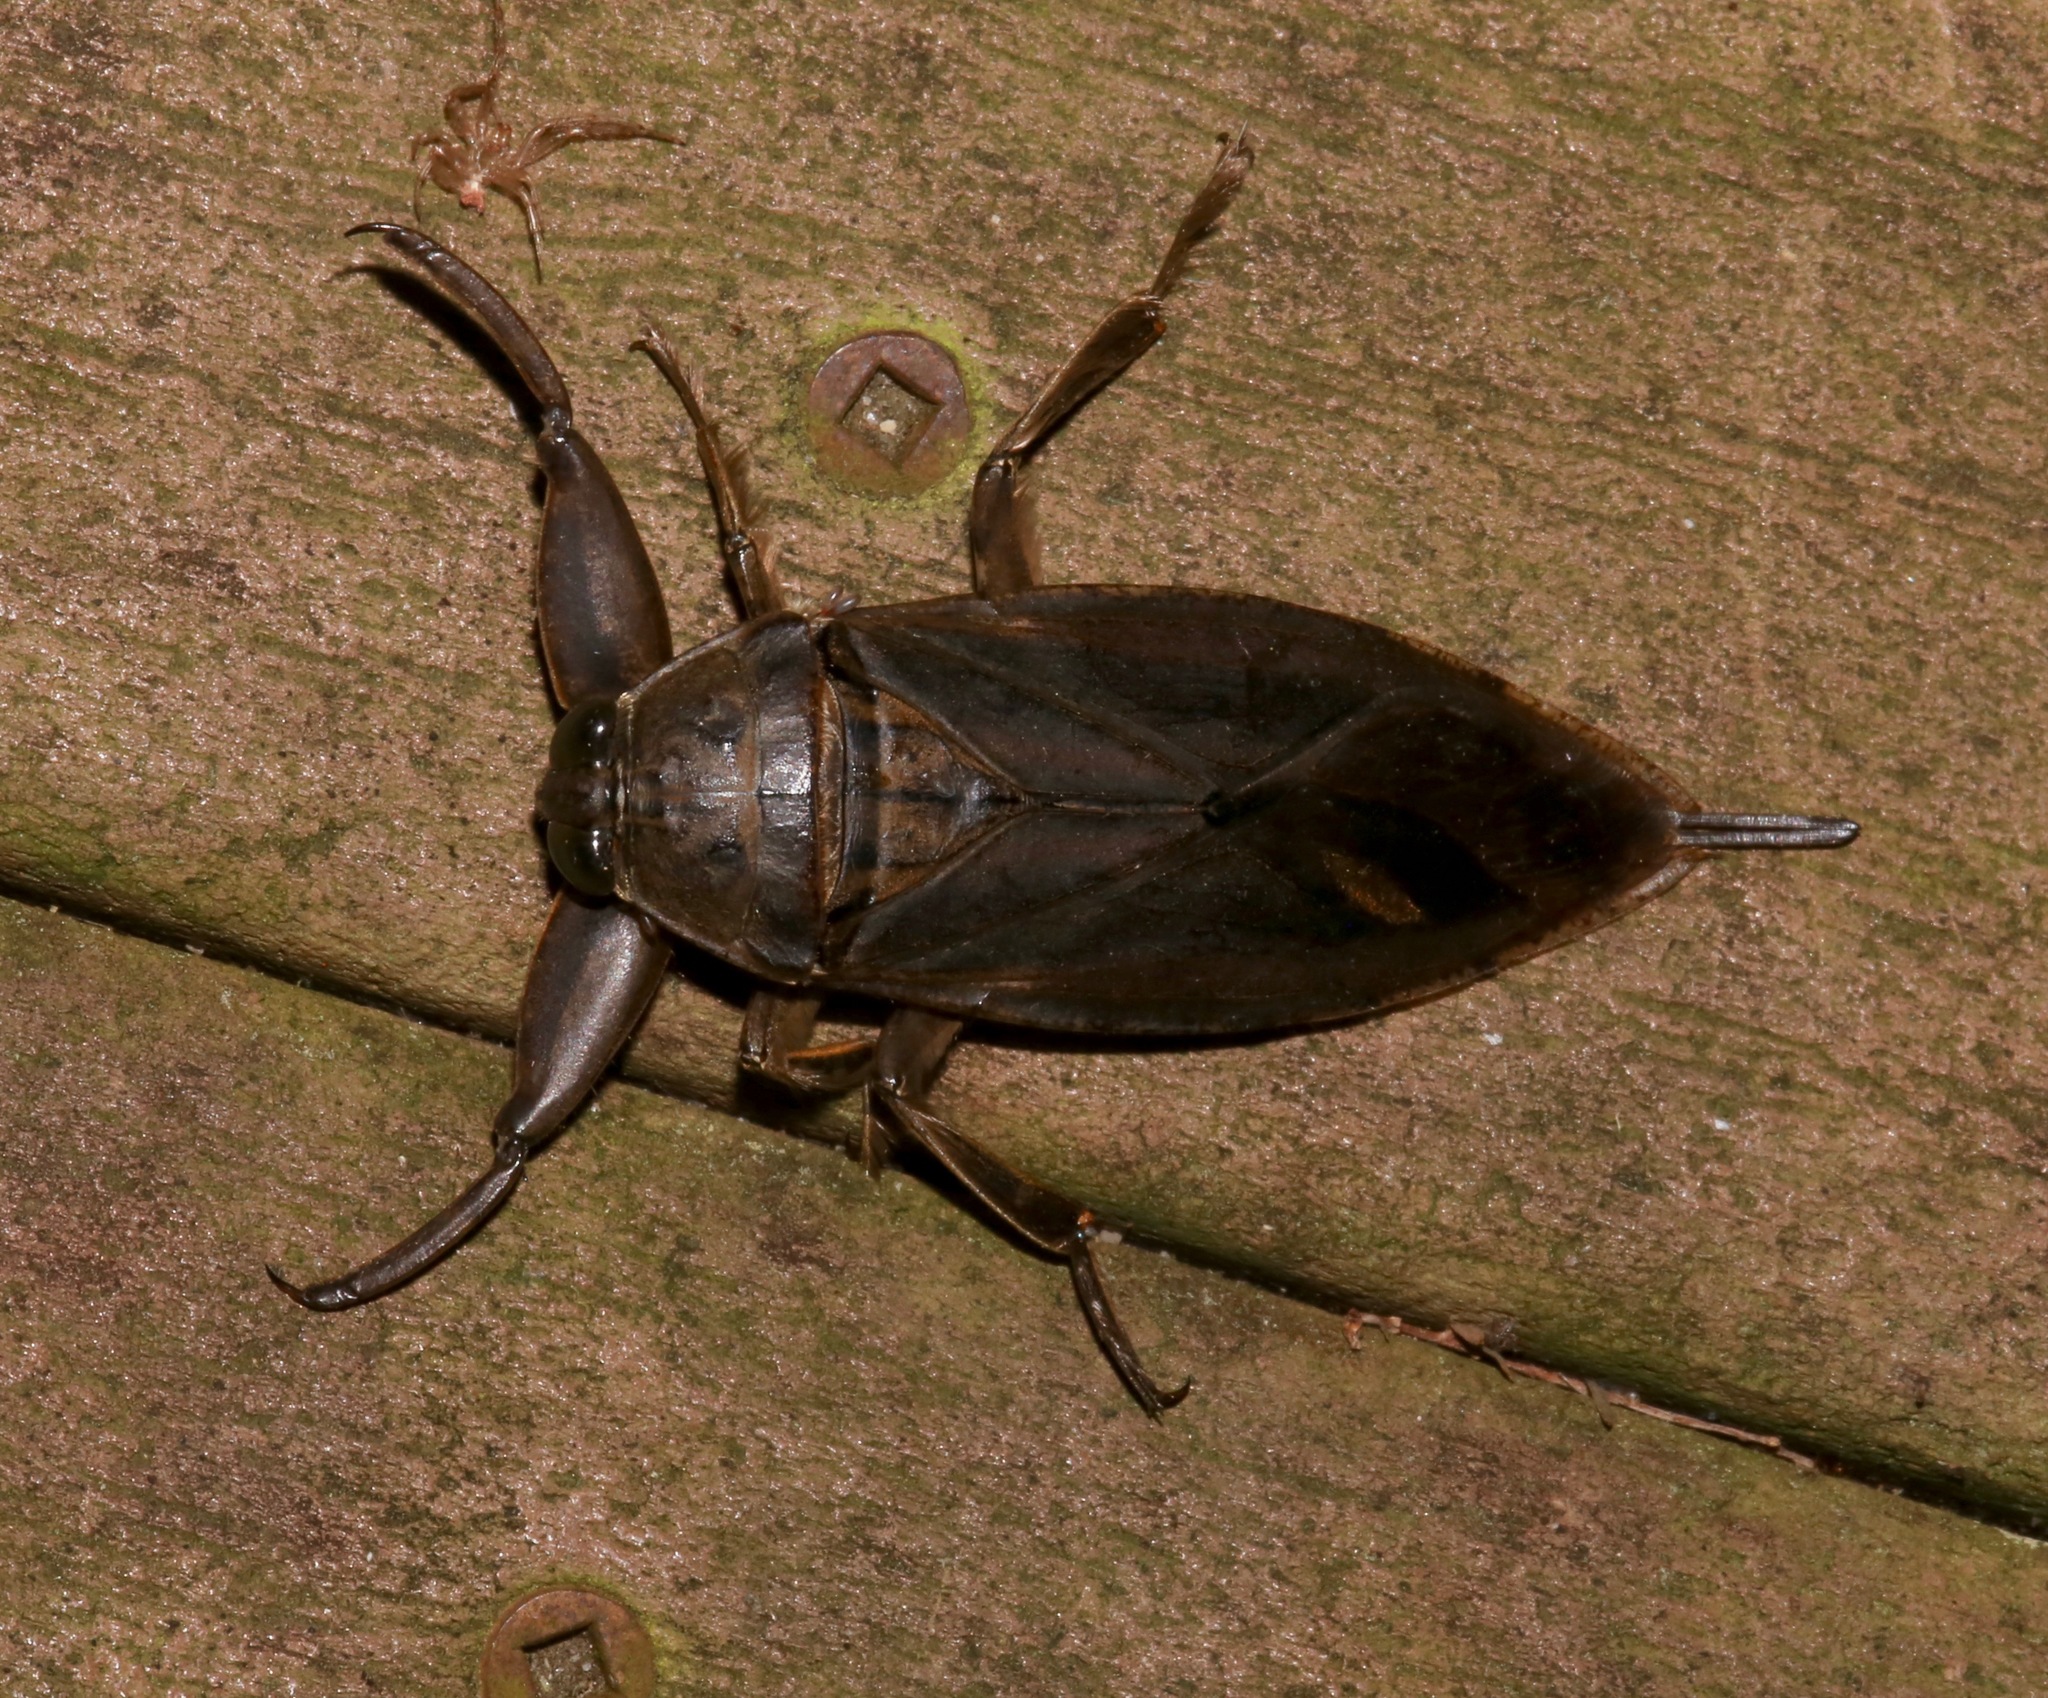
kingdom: Animalia
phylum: Arthropoda
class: Insecta
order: Hemiptera
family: Belostomatidae
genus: Lethocerus
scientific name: Lethocerus uhleri
